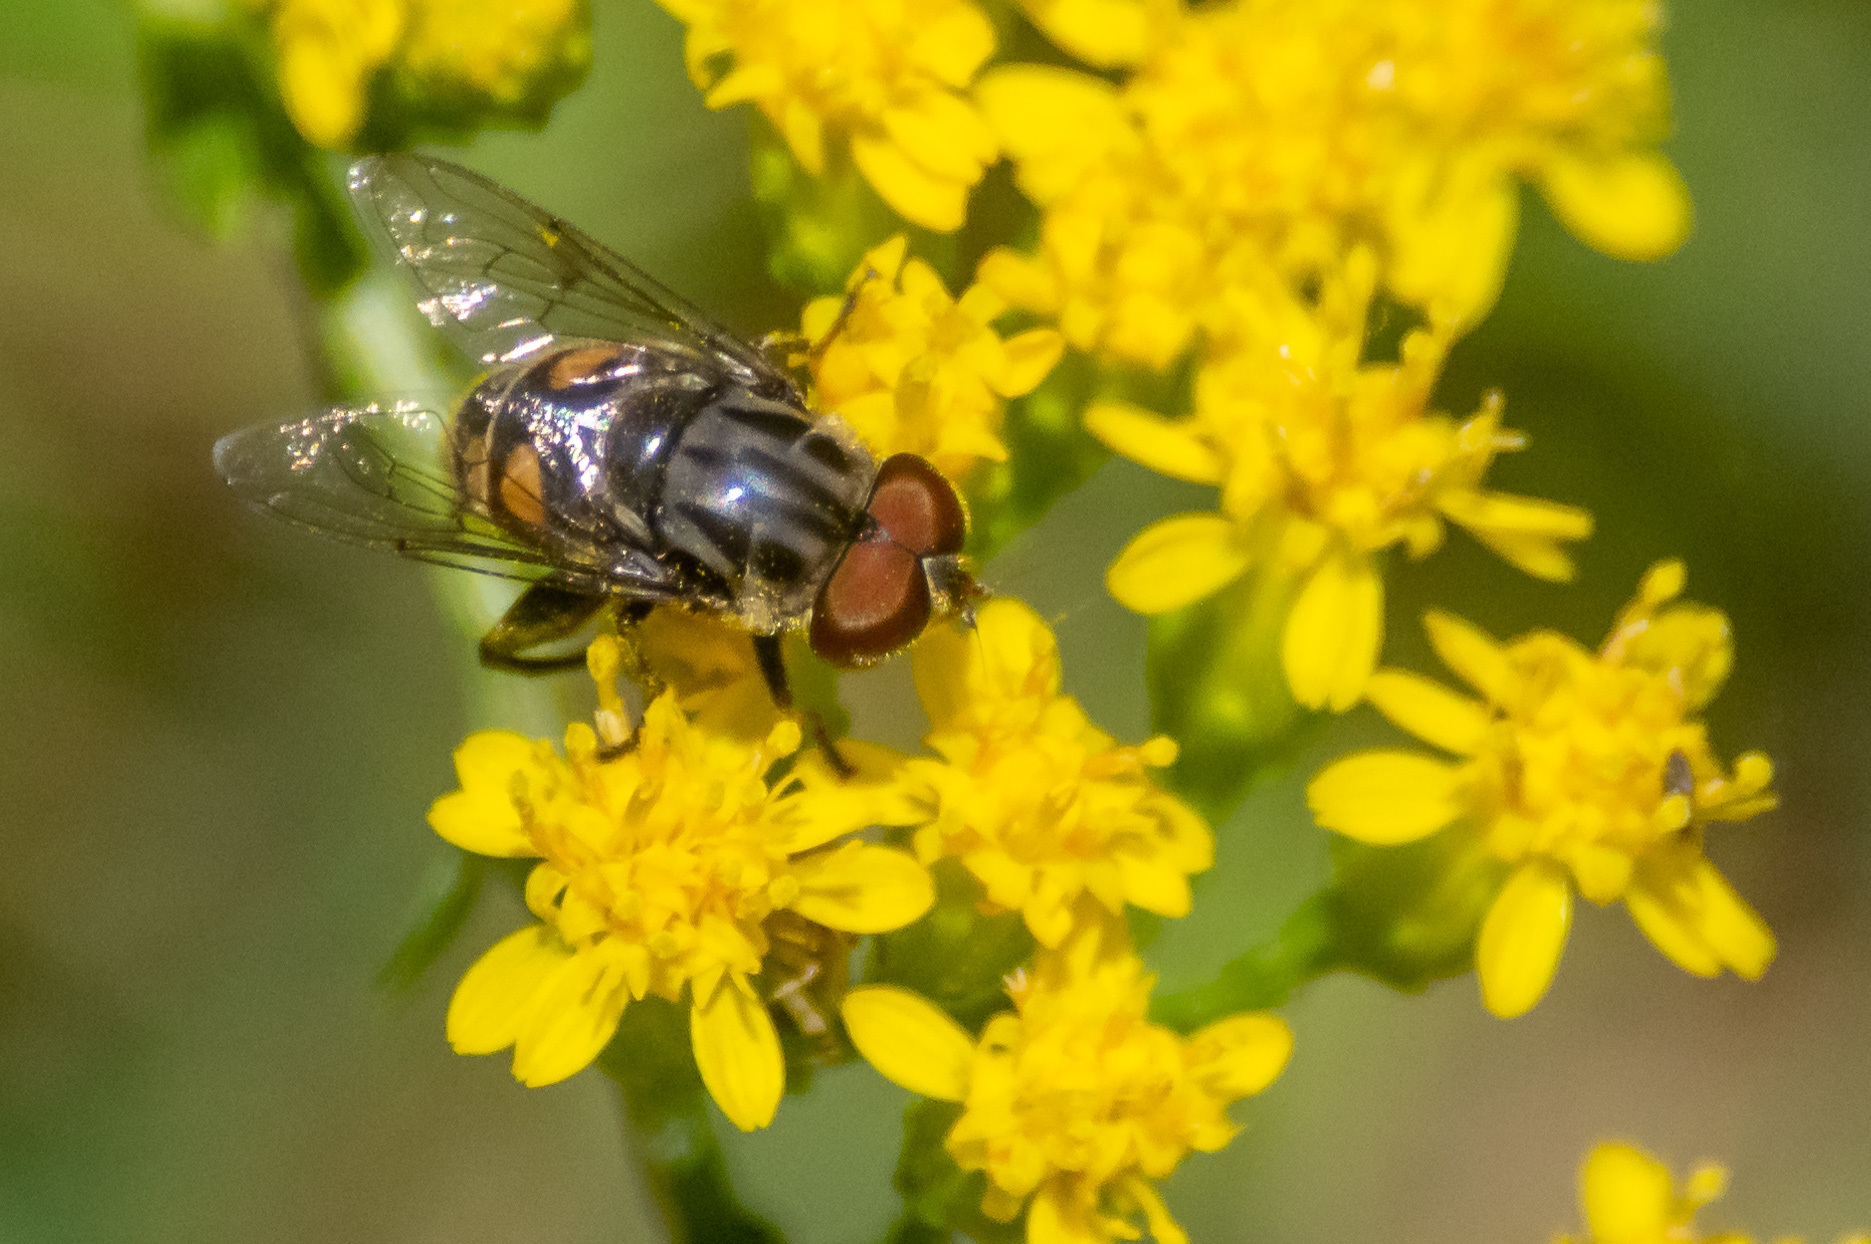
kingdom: Animalia
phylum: Arthropoda
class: Insecta
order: Diptera
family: Syrphidae
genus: Palpada
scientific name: Palpada furcata
